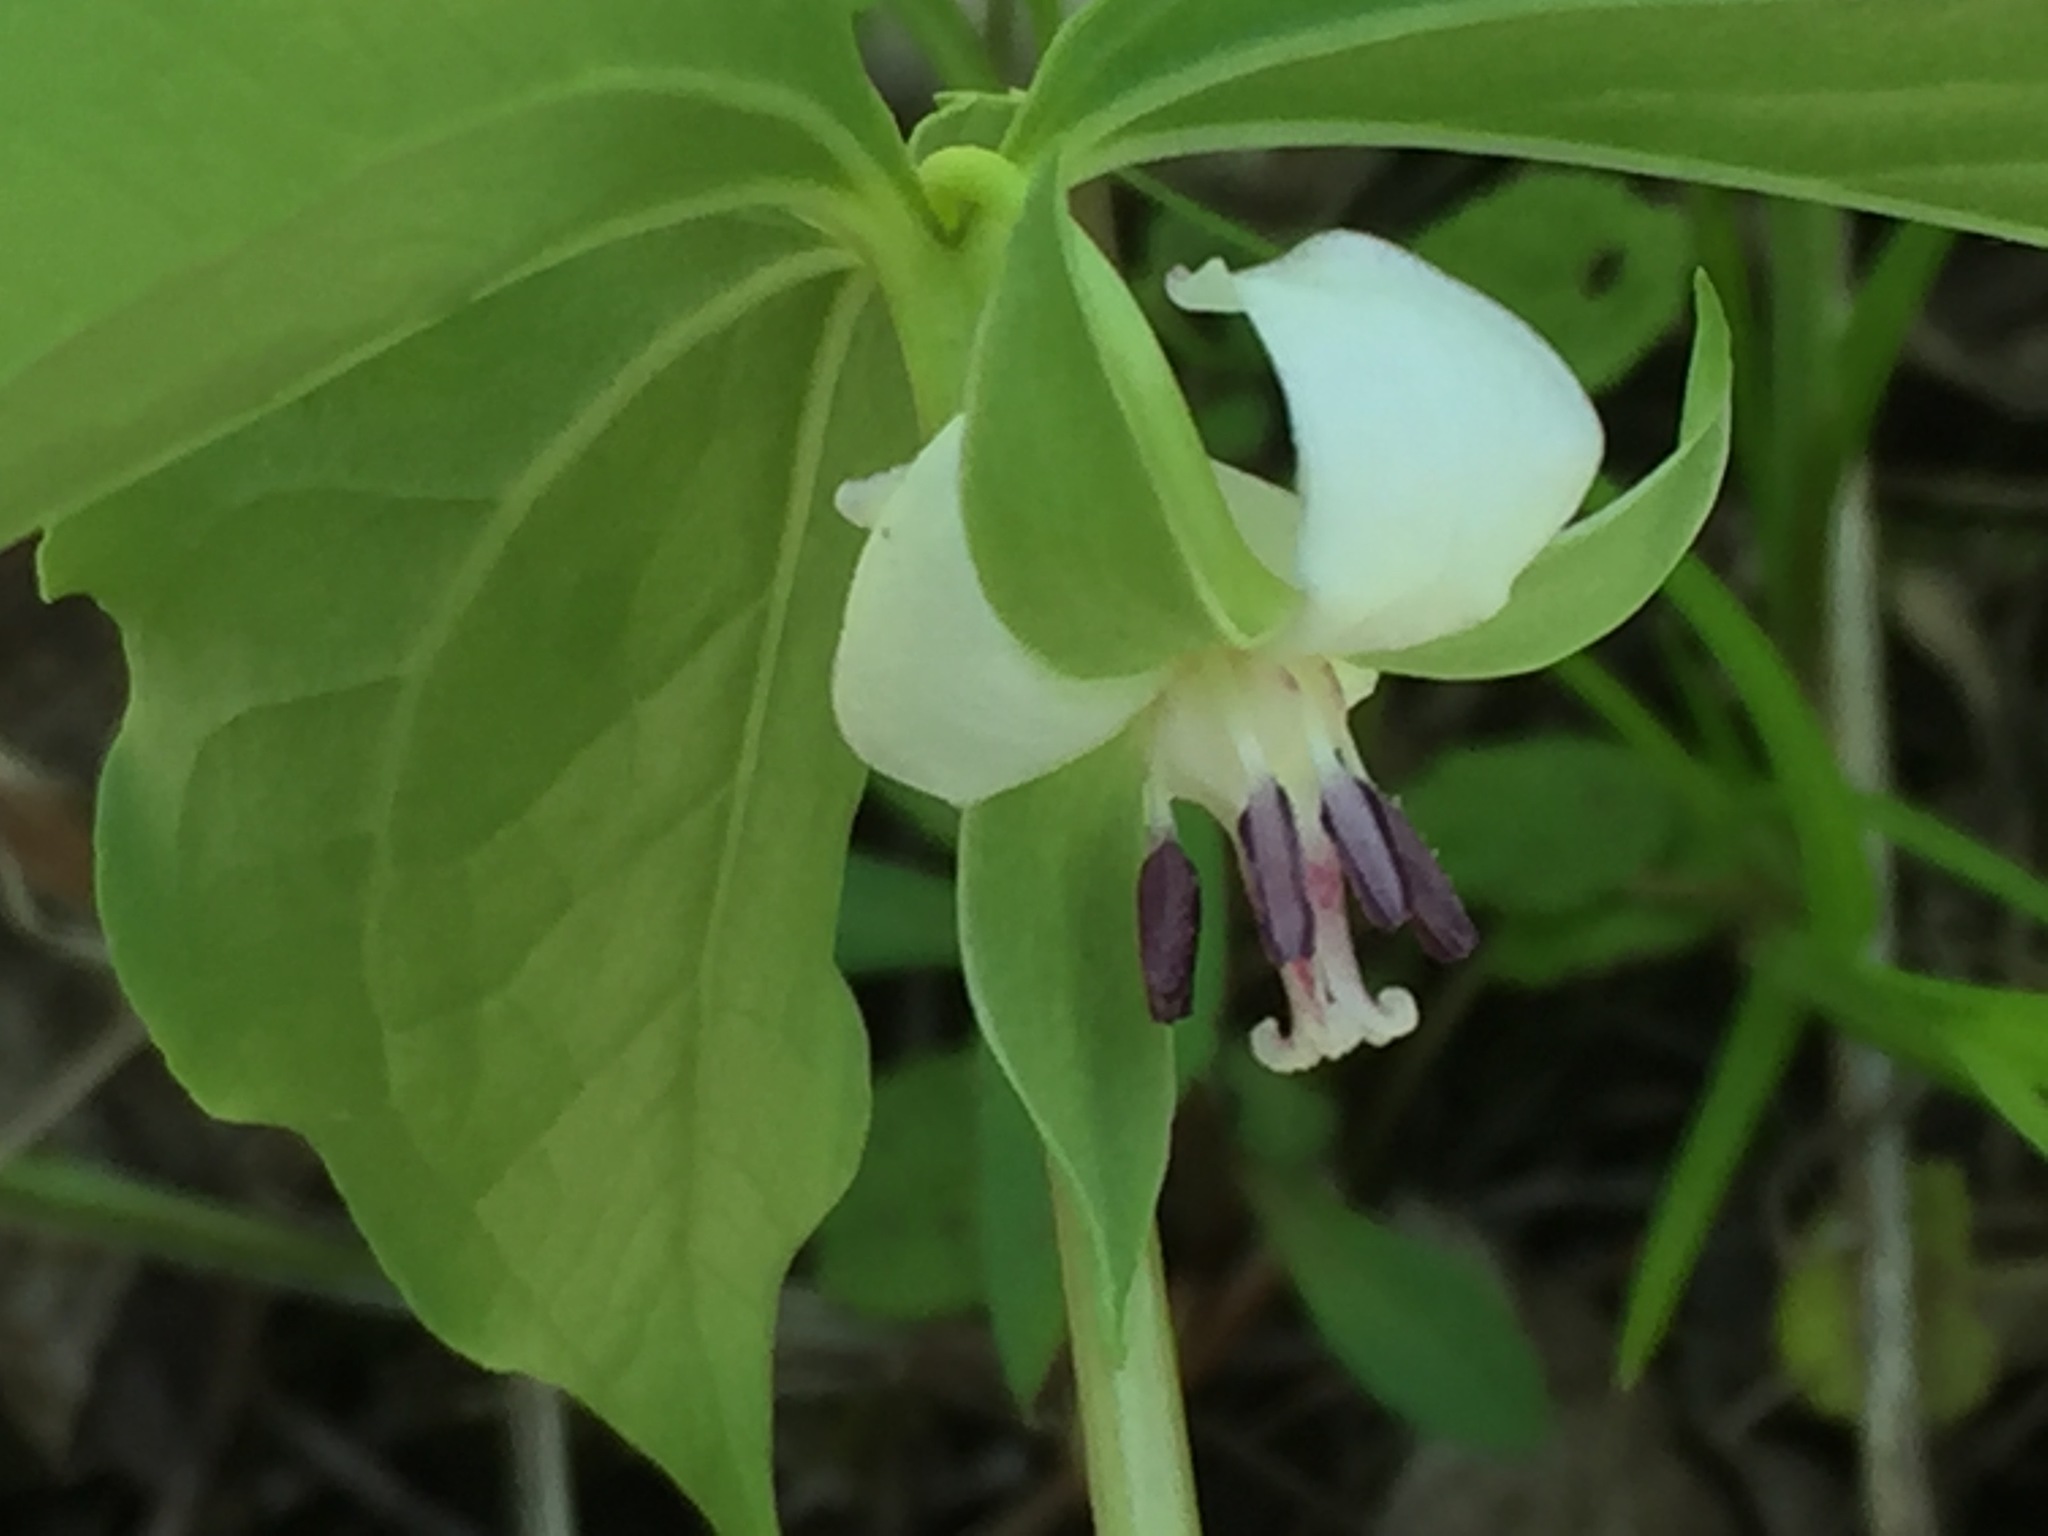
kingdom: Plantae
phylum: Tracheophyta
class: Liliopsida
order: Liliales
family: Melanthiaceae
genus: Trillium
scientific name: Trillium cernuum
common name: Nodding trillium
